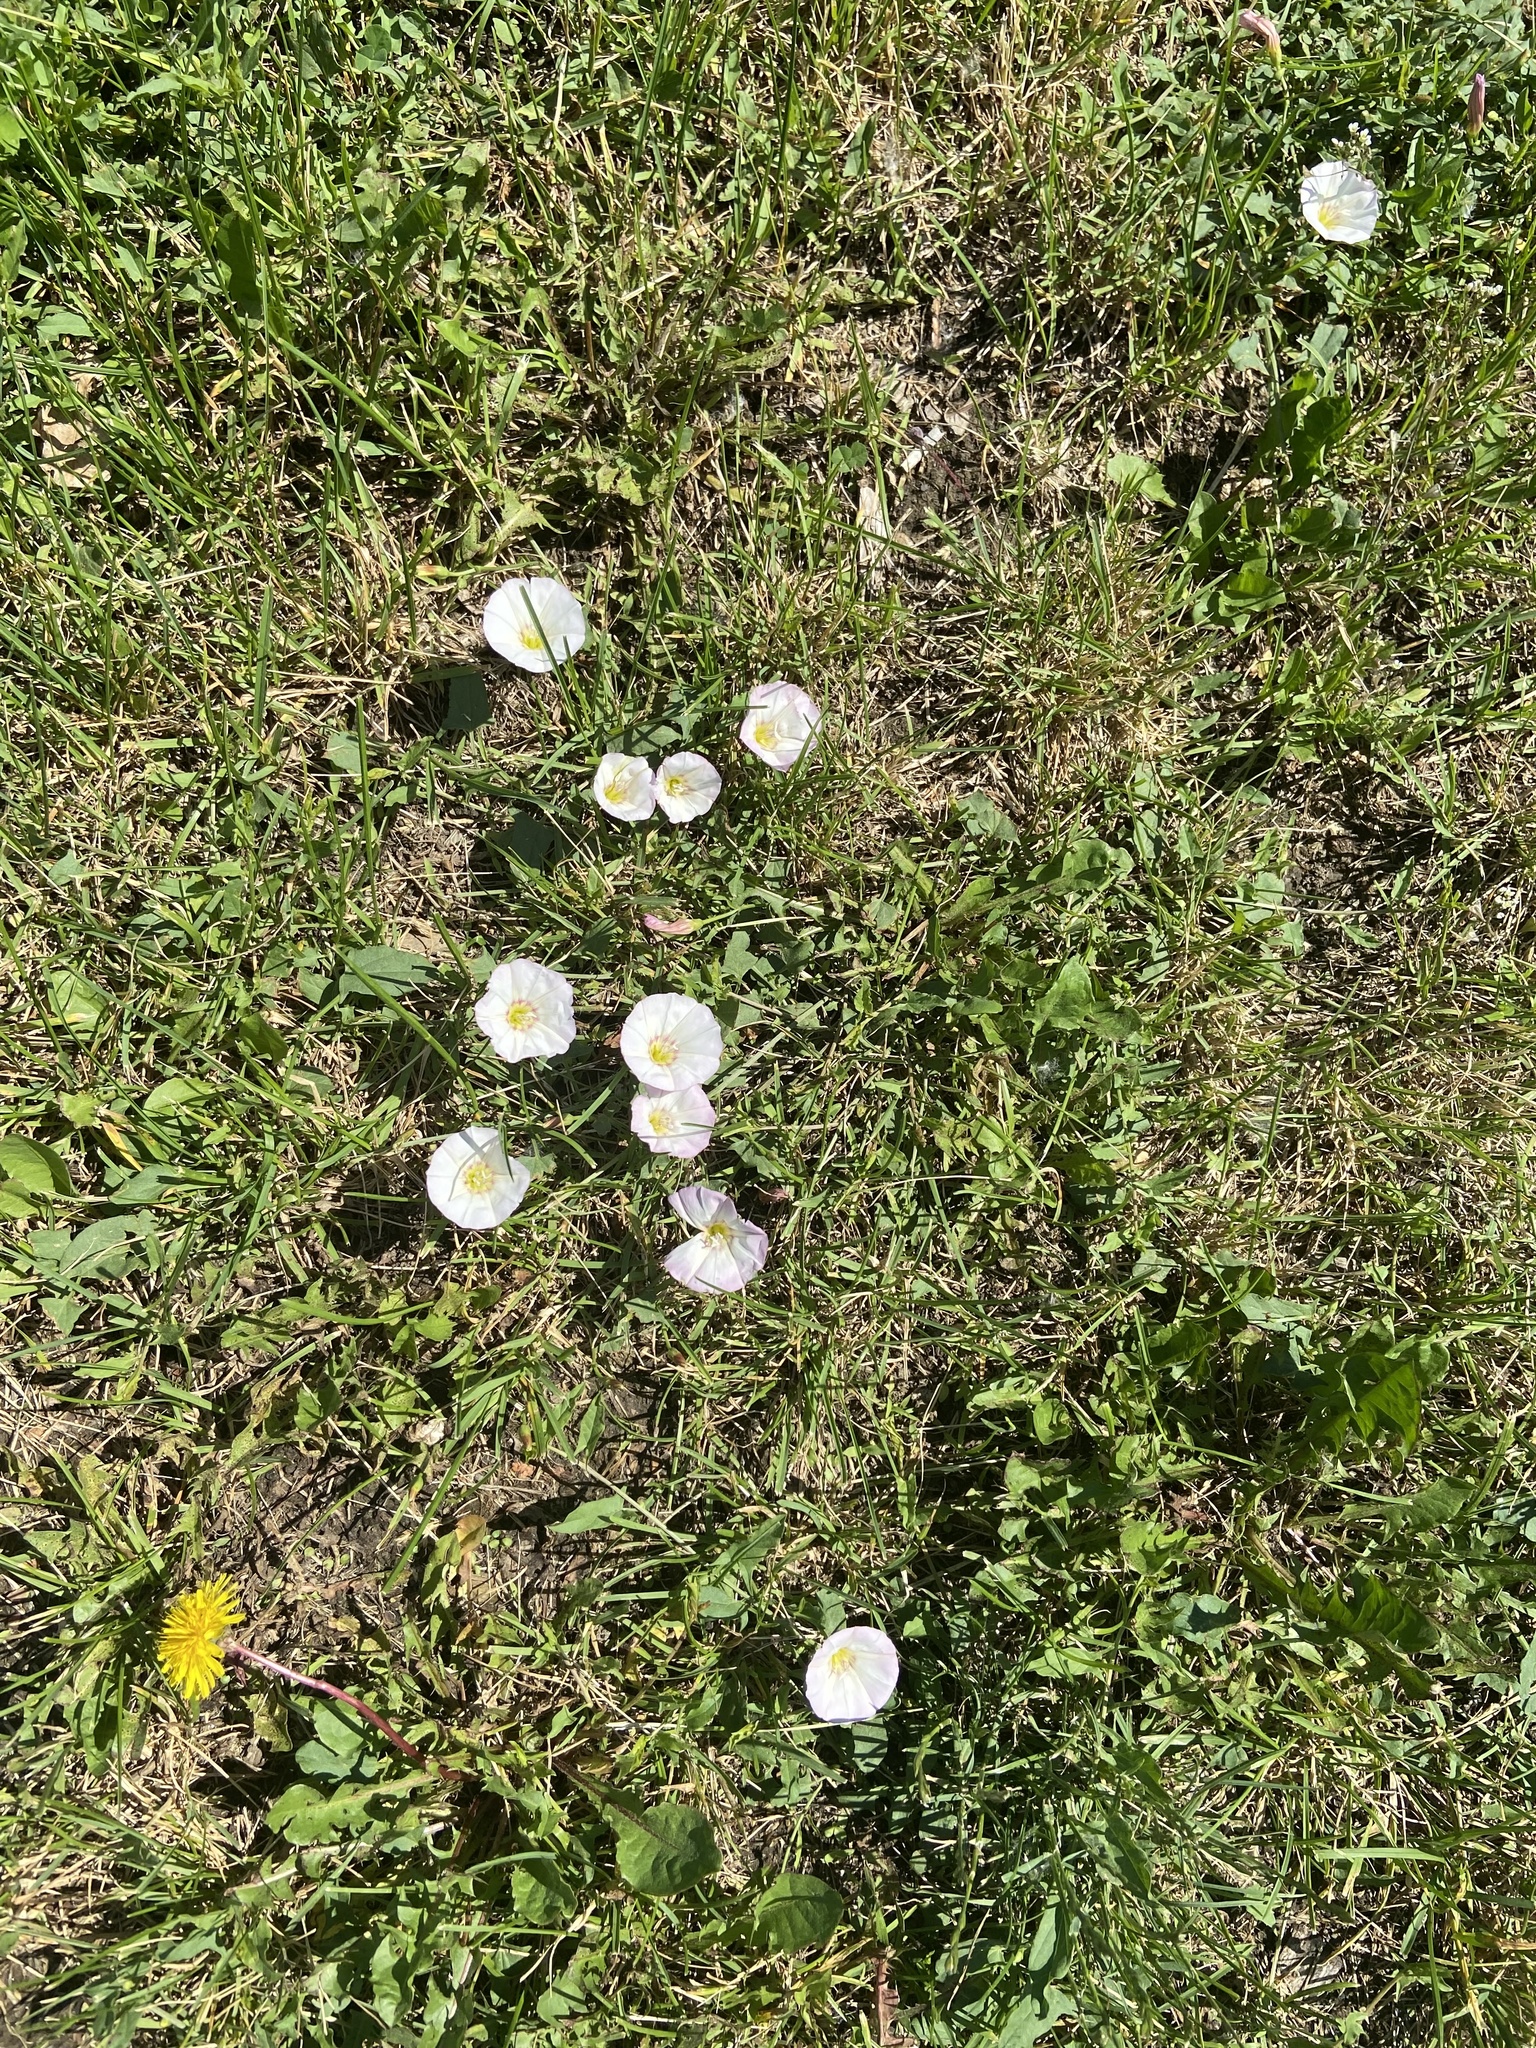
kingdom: Plantae
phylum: Tracheophyta
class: Magnoliopsida
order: Solanales
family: Convolvulaceae
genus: Convolvulus
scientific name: Convolvulus arvensis
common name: Field bindweed
